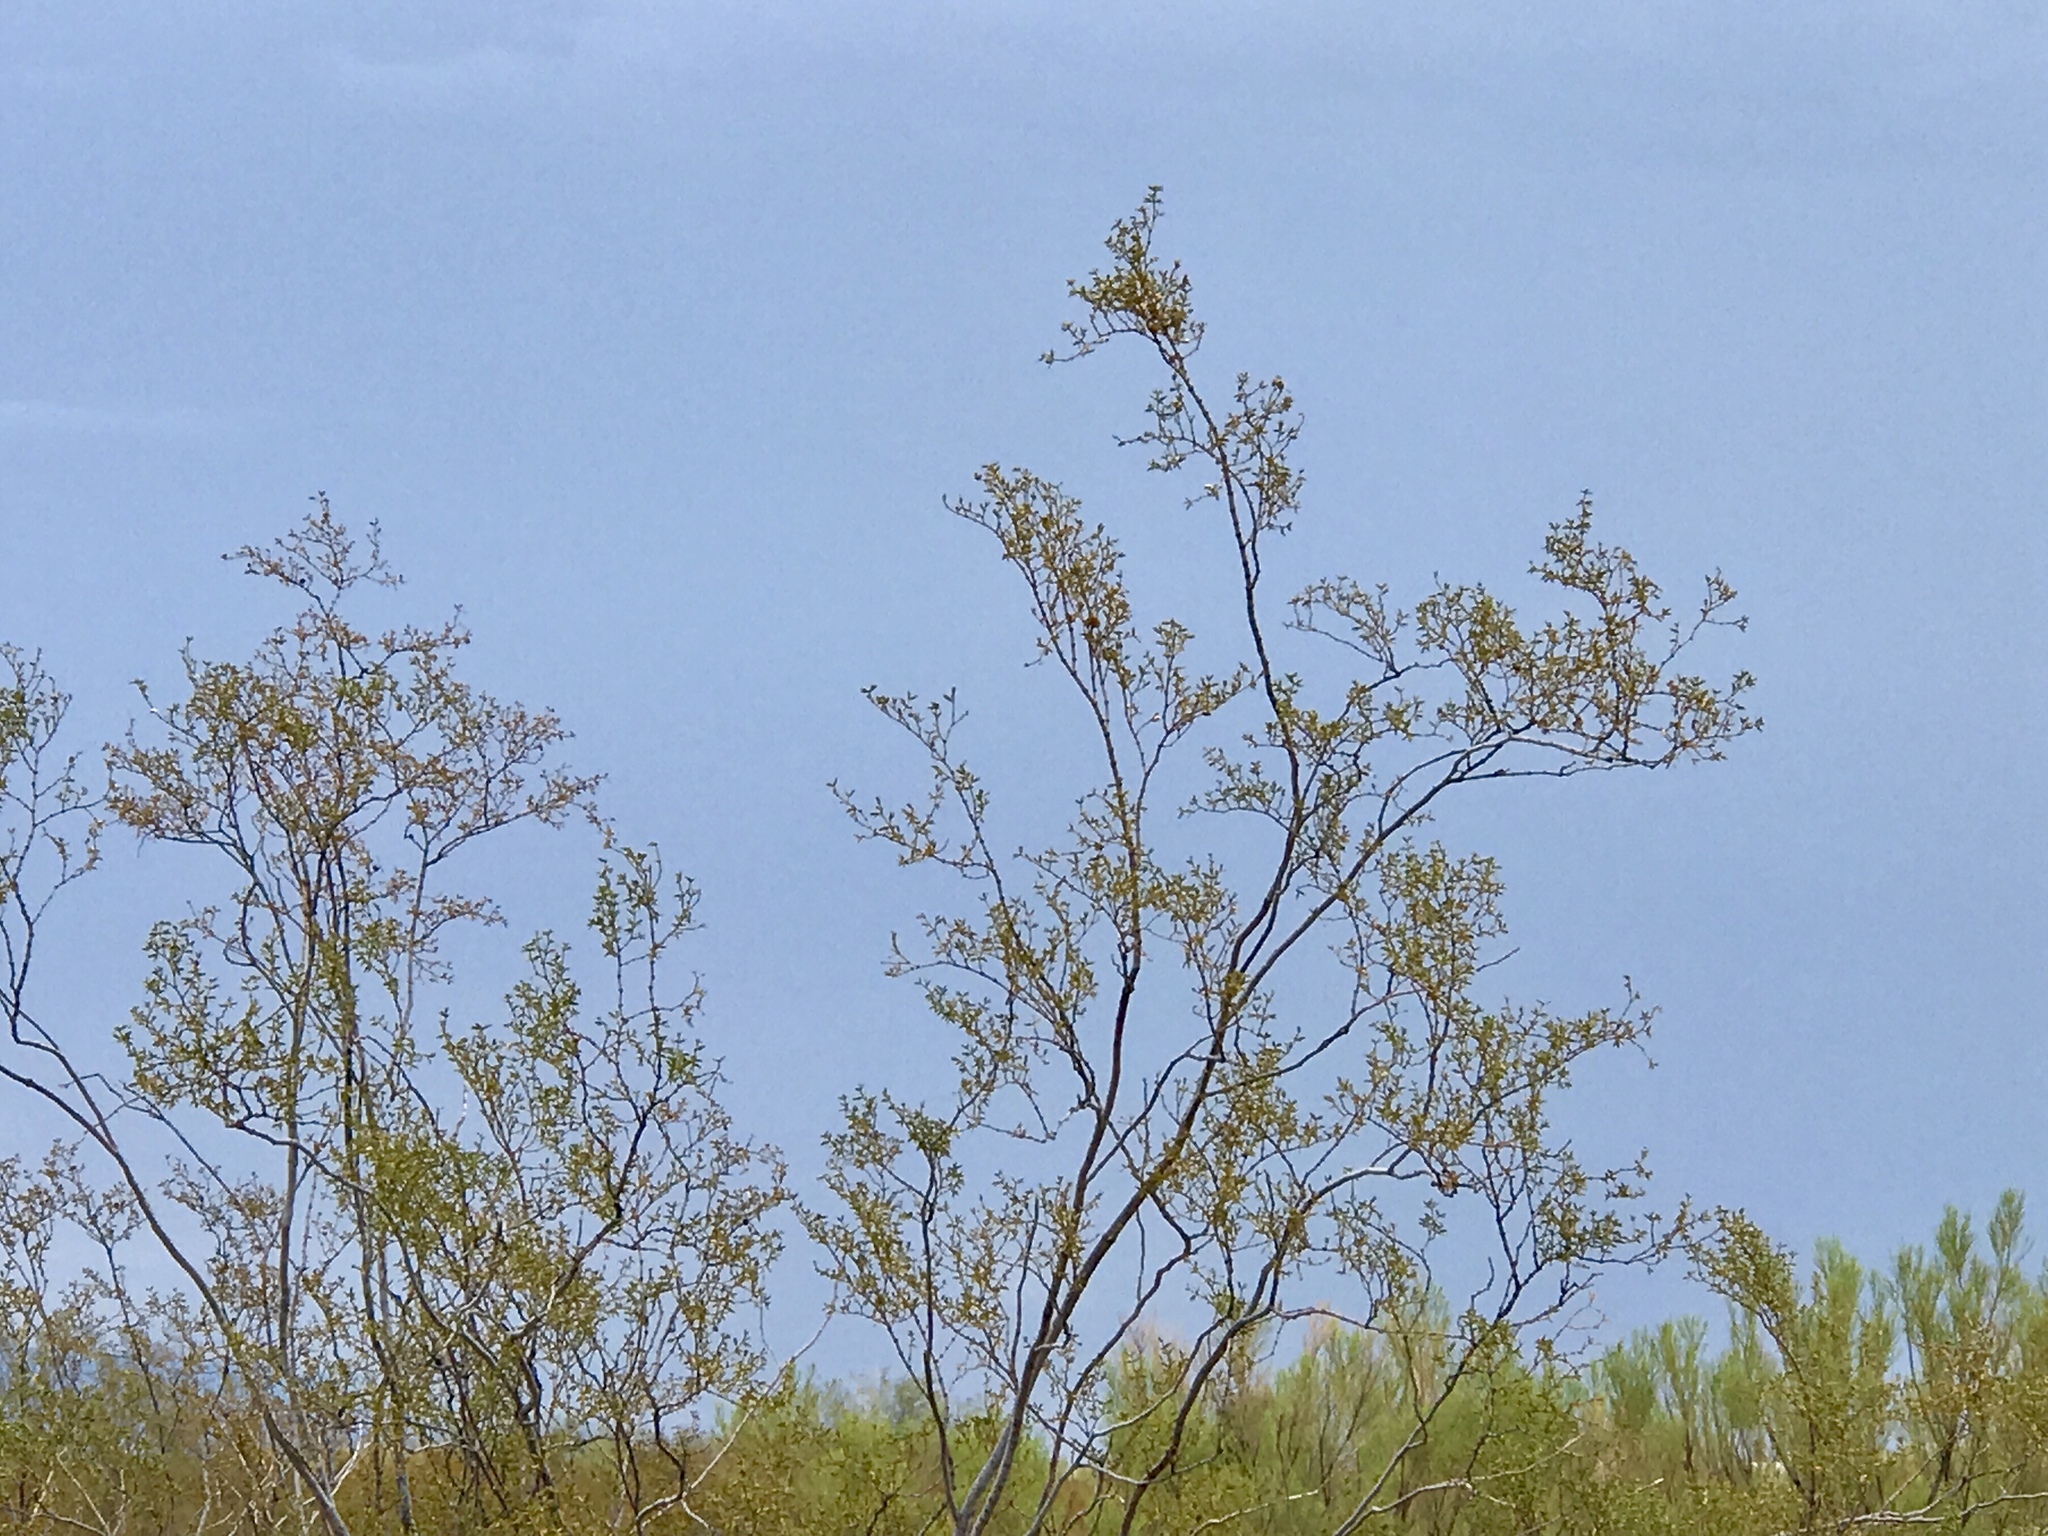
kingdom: Plantae
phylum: Tracheophyta
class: Magnoliopsida
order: Zygophyllales
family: Zygophyllaceae
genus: Larrea
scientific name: Larrea tridentata
